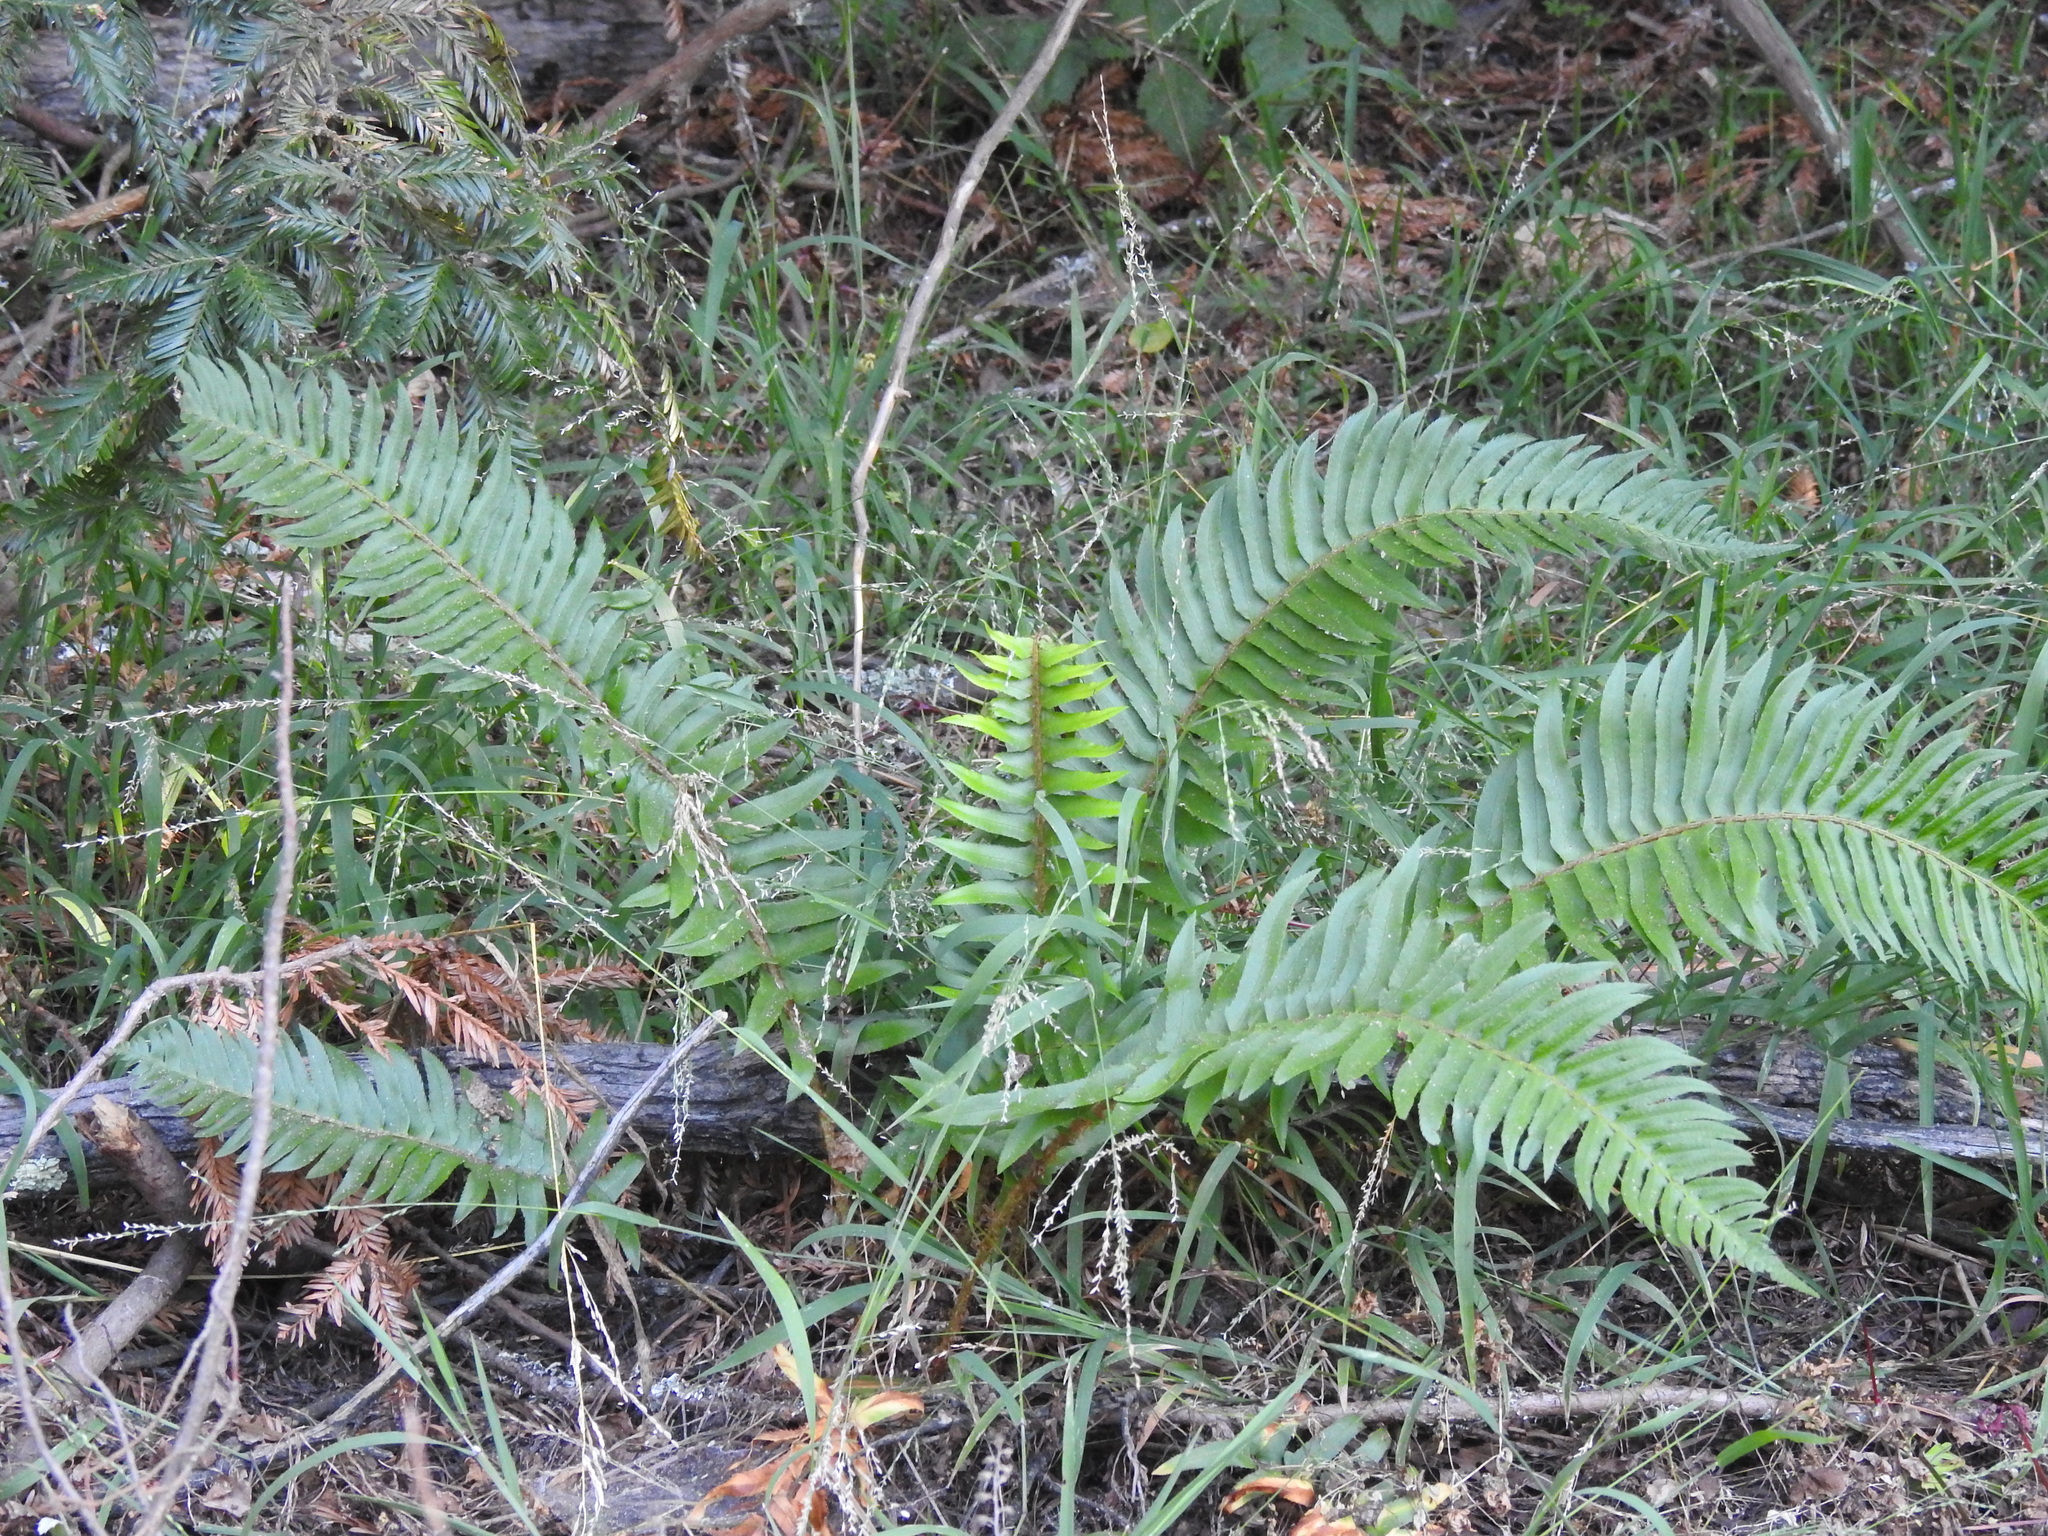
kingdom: Plantae
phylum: Tracheophyta
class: Polypodiopsida
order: Polypodiales
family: Dryopteridaceae
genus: Polystichum
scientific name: Polystichum munitum
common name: Western sword-fern
